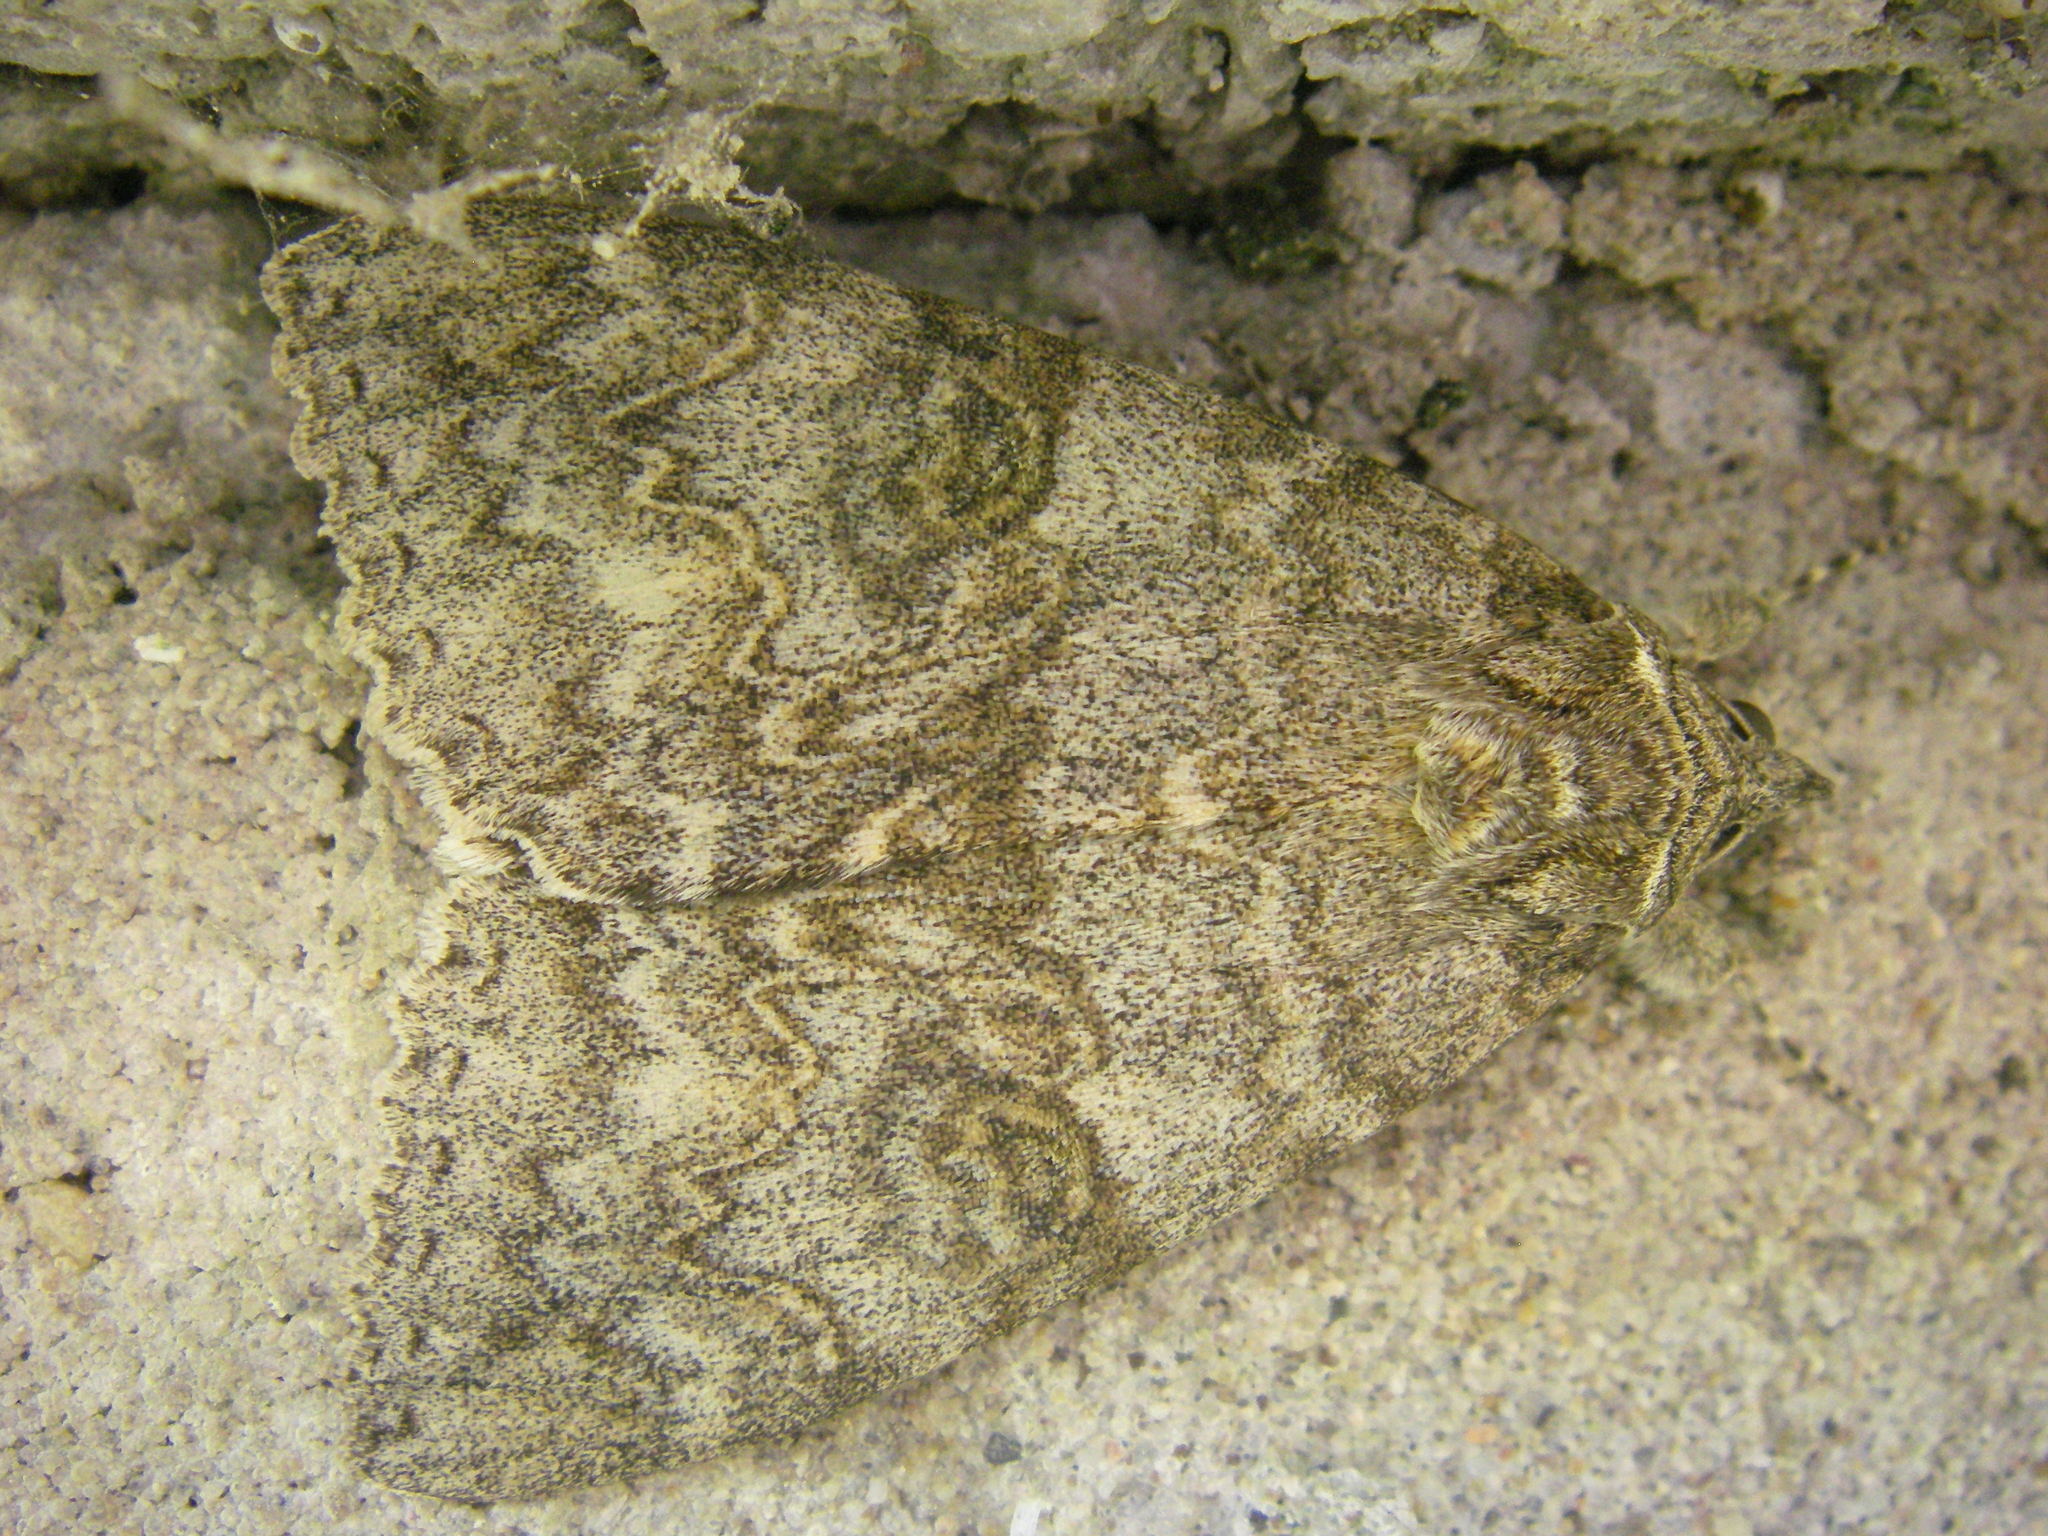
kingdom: Animalia
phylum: Arthropoda
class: Insecta
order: Lepidoptera
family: Erebidae
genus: Catocala
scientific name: Catocala nupta
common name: Red underwing
